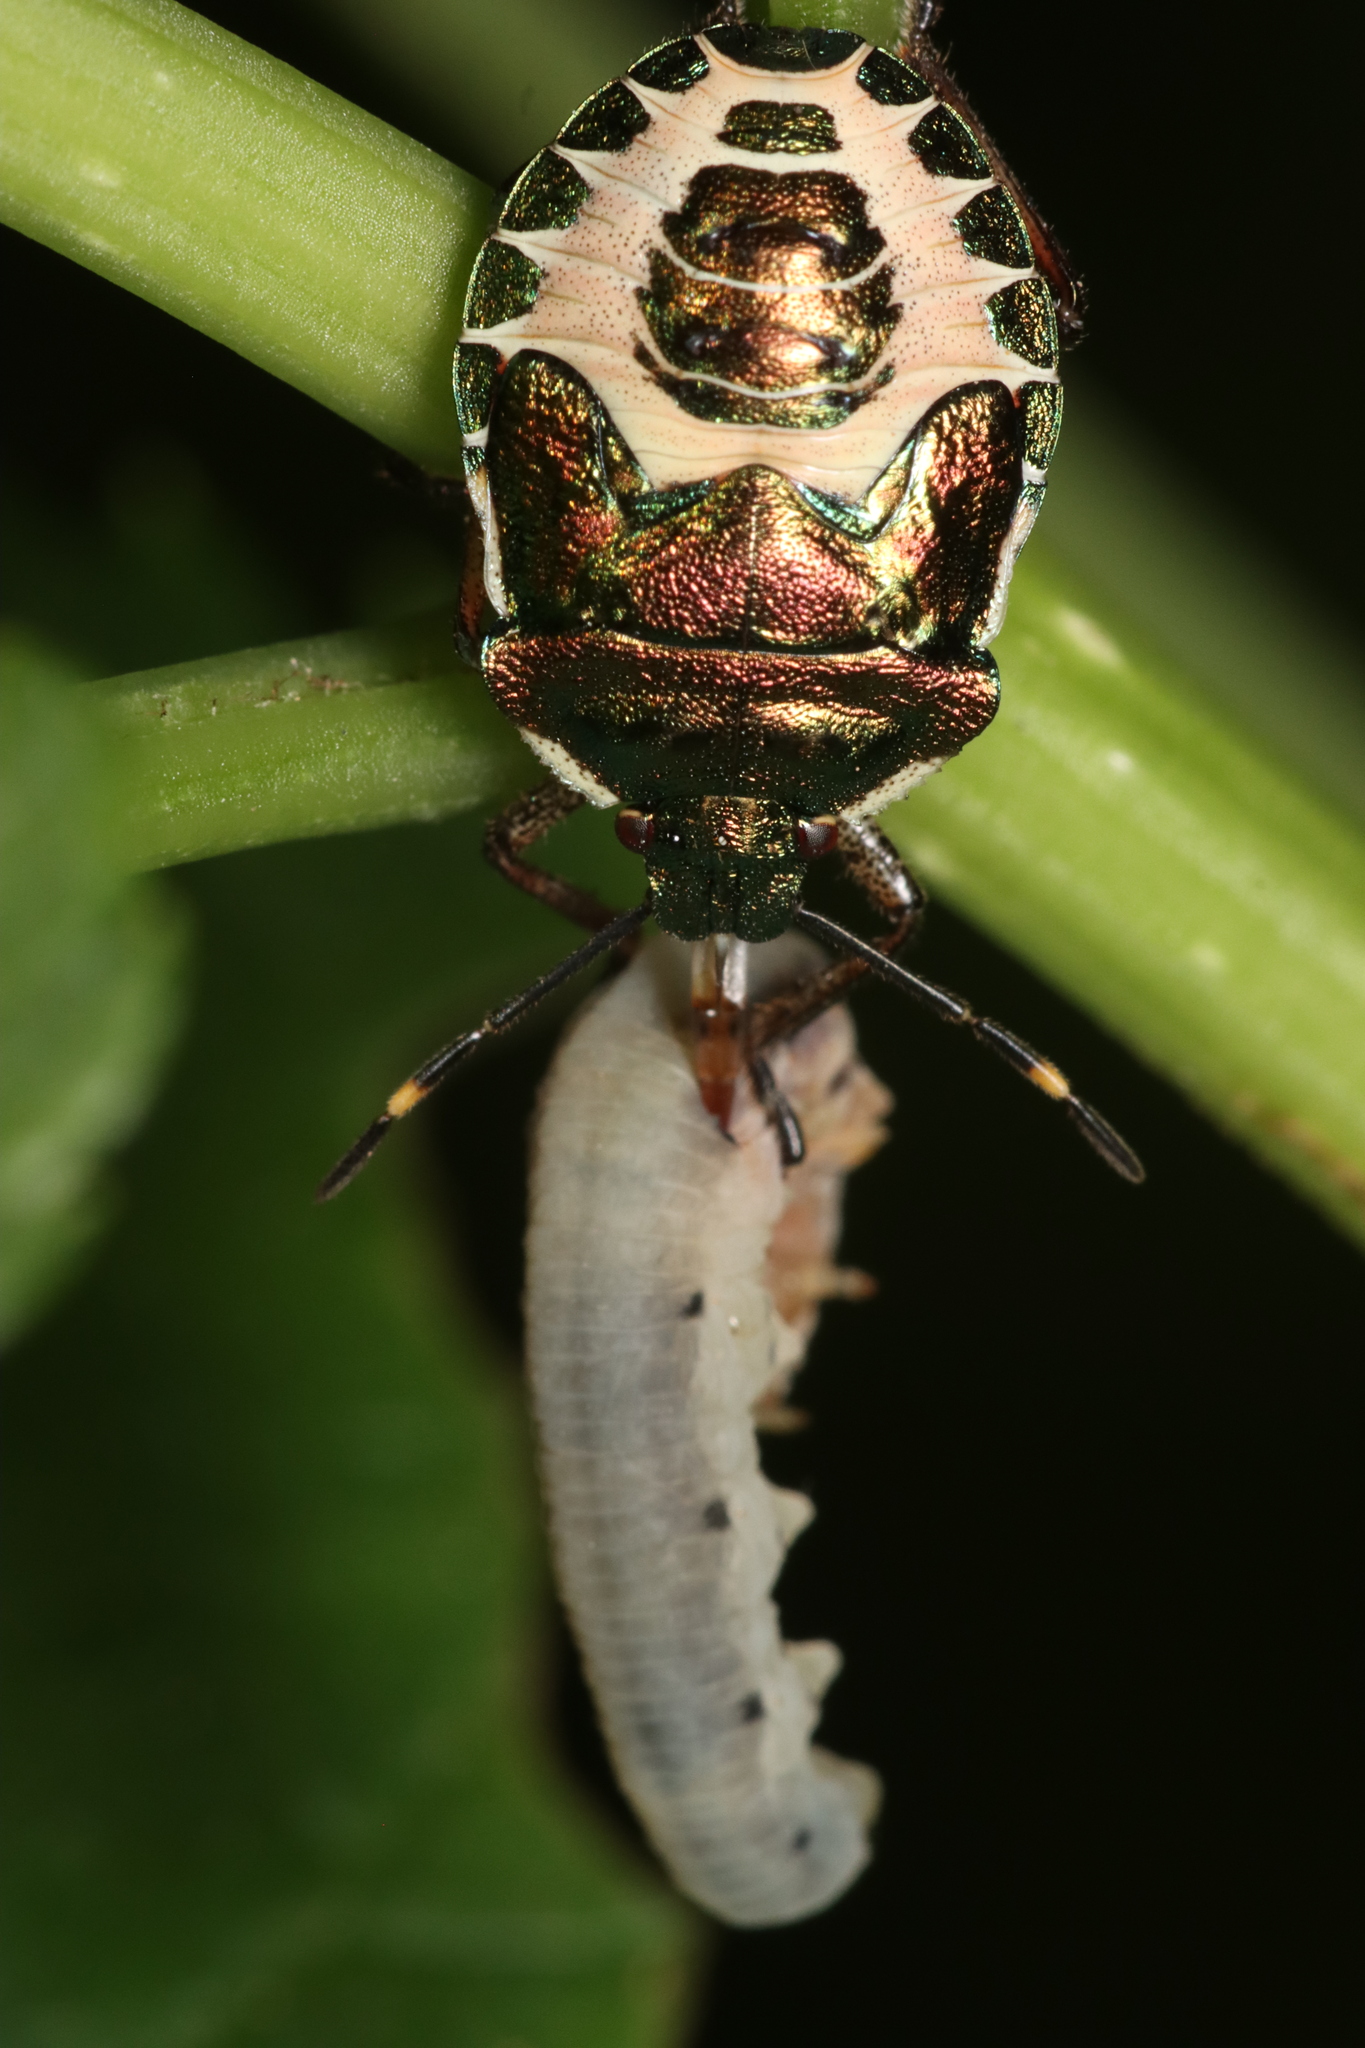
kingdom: Animalia
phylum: Arthropoda
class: Insecta
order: Hemiptera
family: Pentatomidae
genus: Troilus
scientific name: Troilus luridus
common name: Bronze shieldbug
